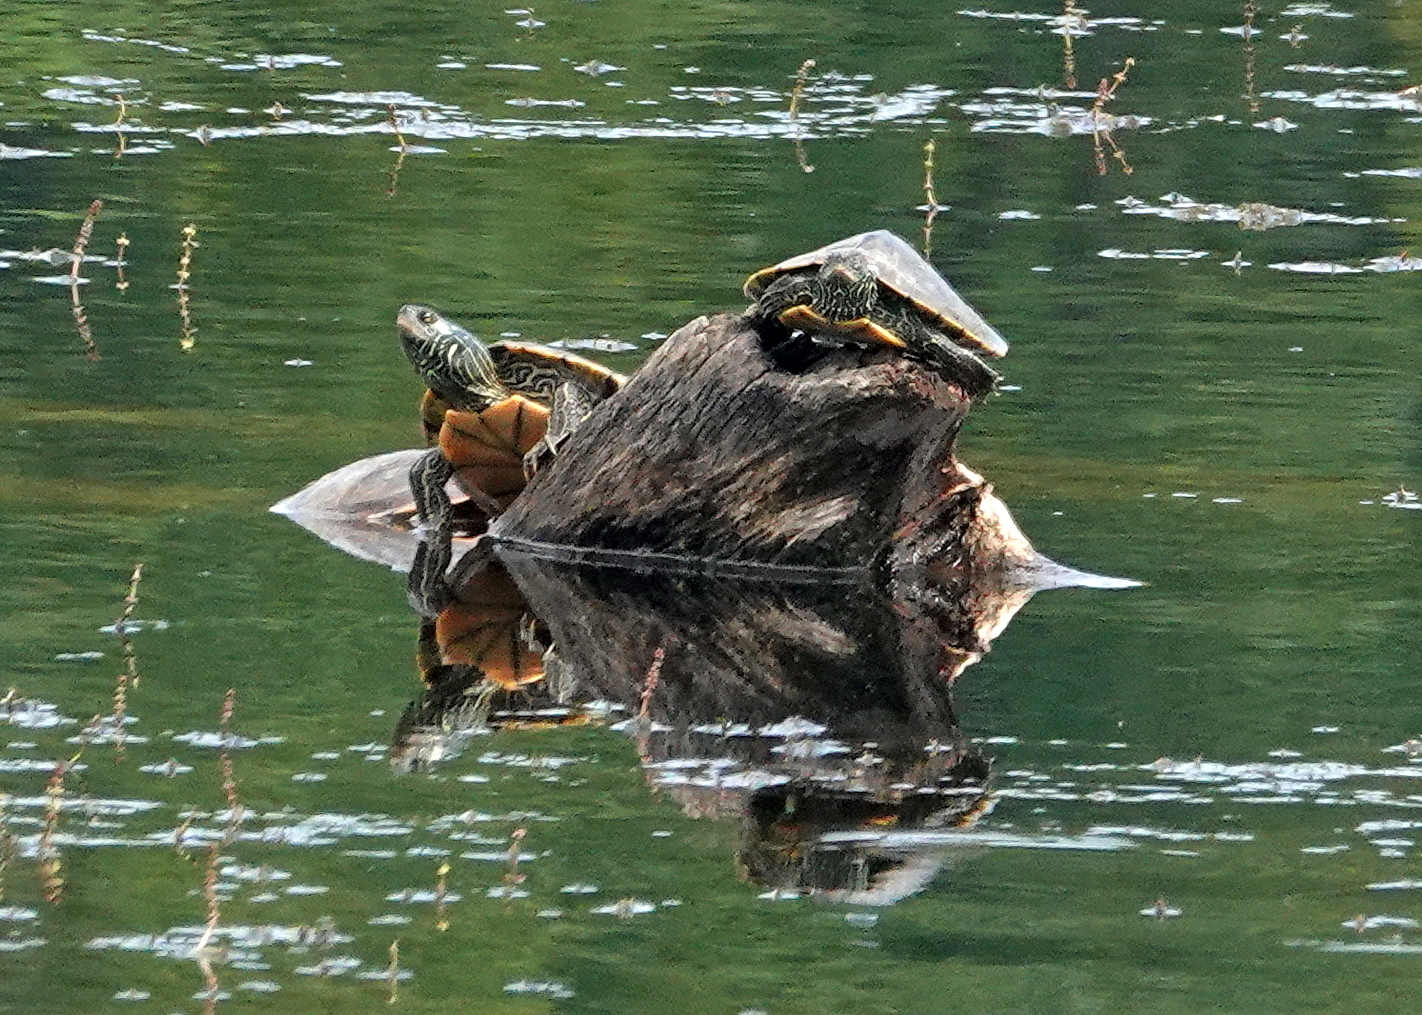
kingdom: Animalia
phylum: Chordata
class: Testudines
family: Emydidae
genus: Graptemys
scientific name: Graptemys geographica
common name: Common map turtle
